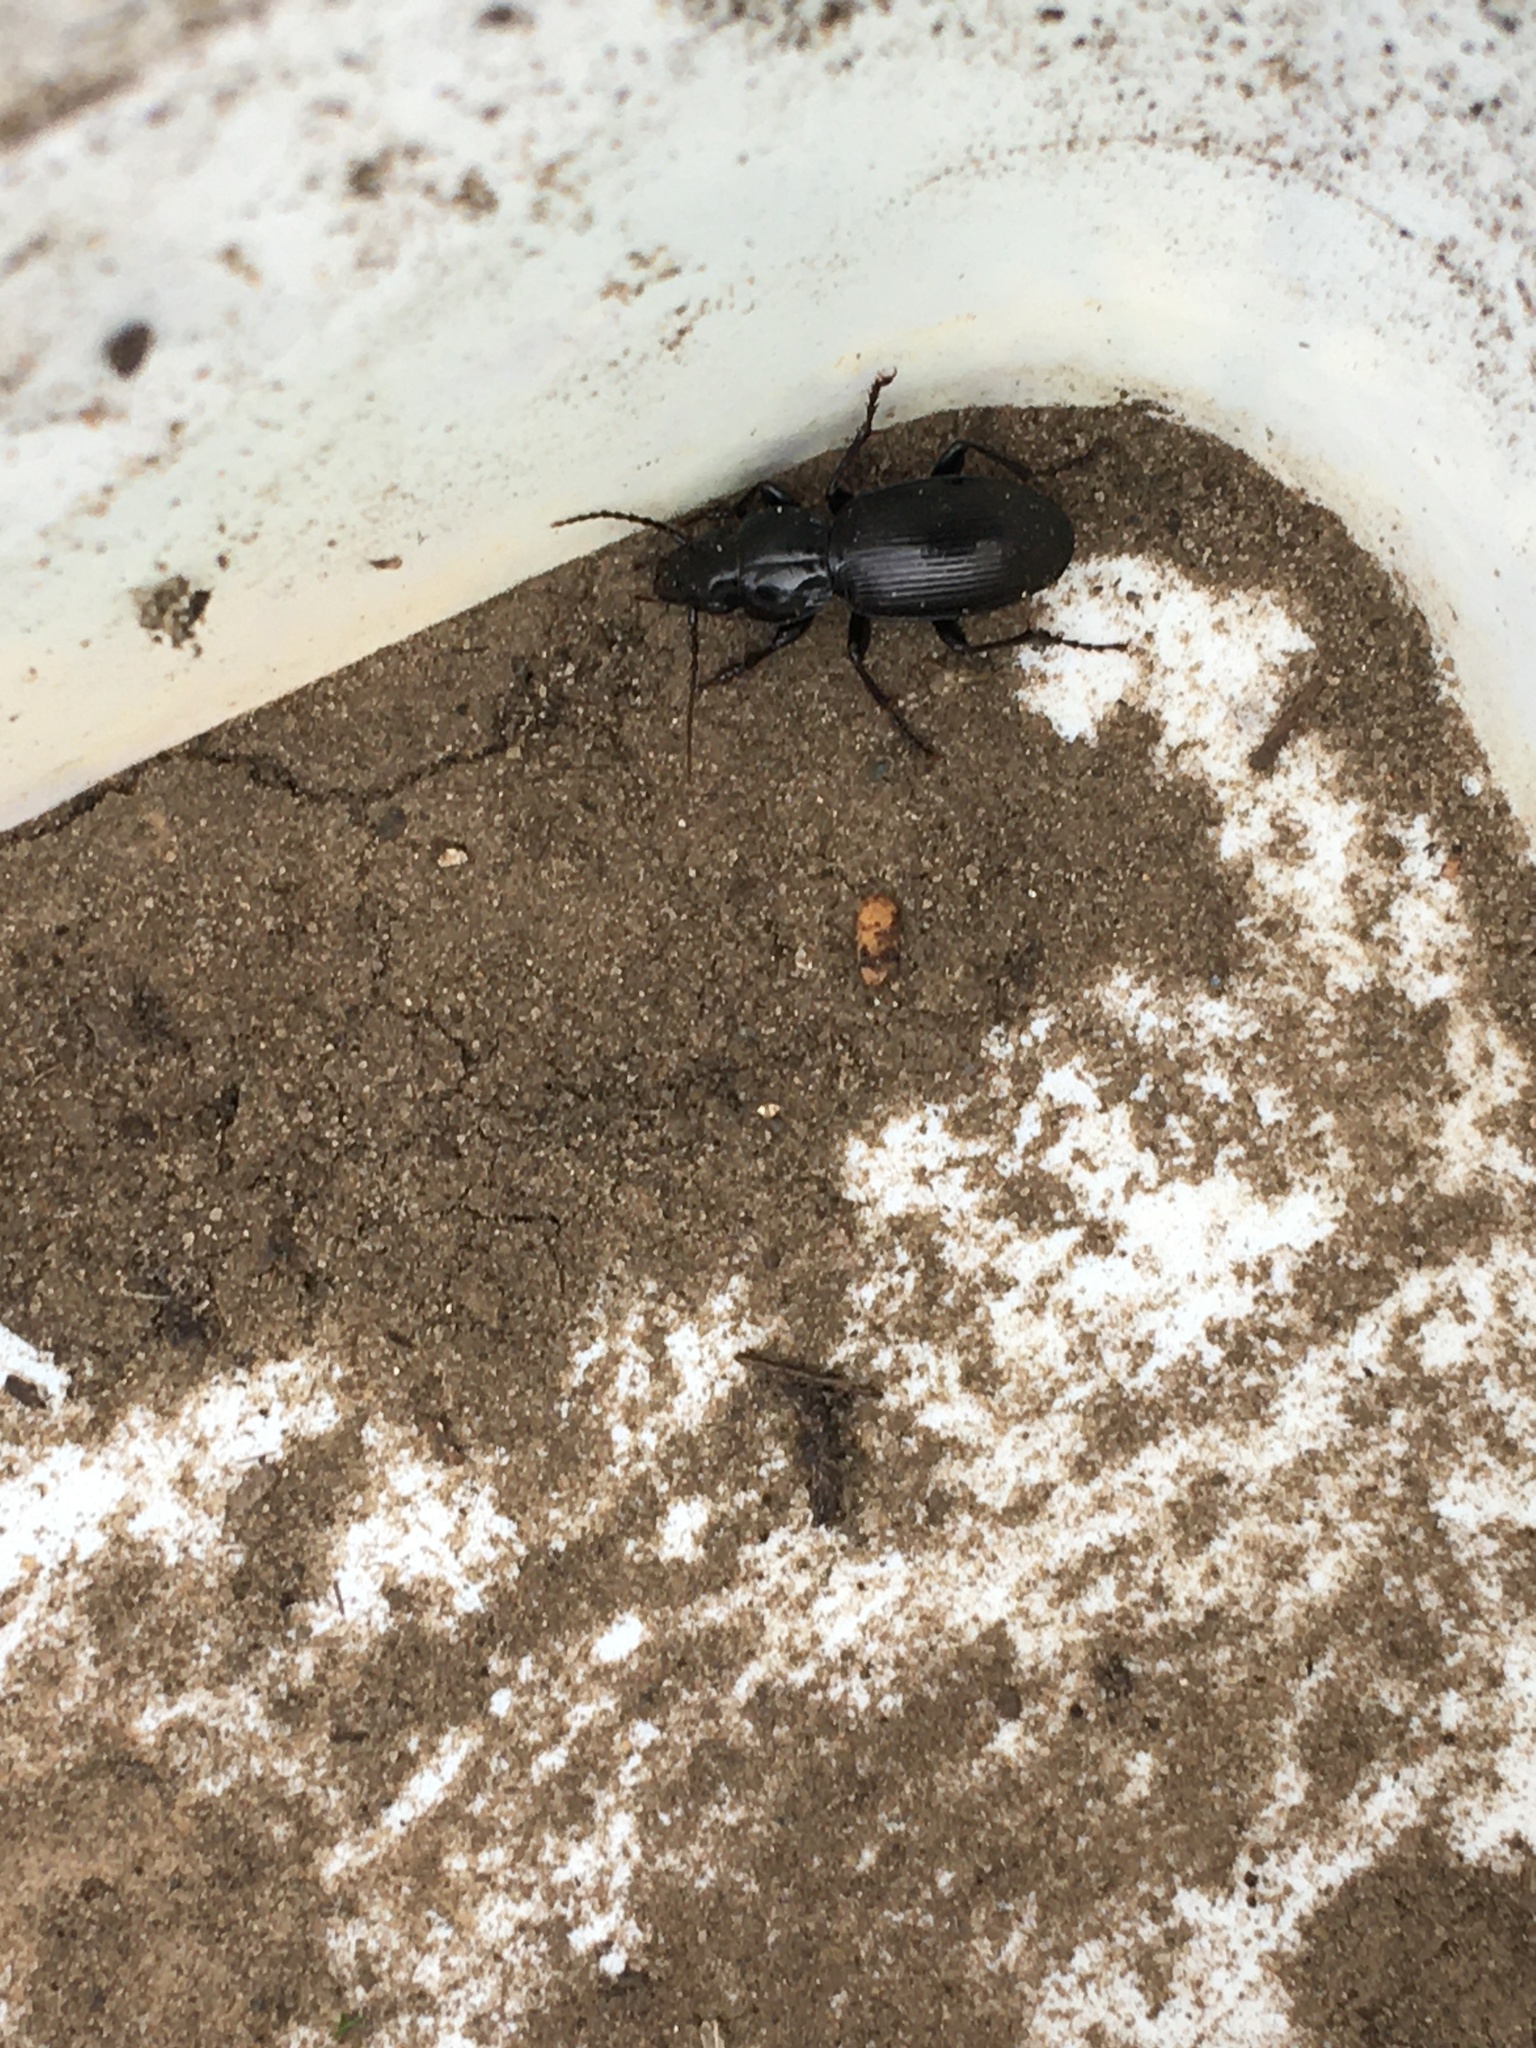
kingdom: Animalia
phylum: Arthropoda
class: Insecta
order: Coleoptera
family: Carabidae
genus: Pterostichus
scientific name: Pterostichus madidus
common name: Black clock
